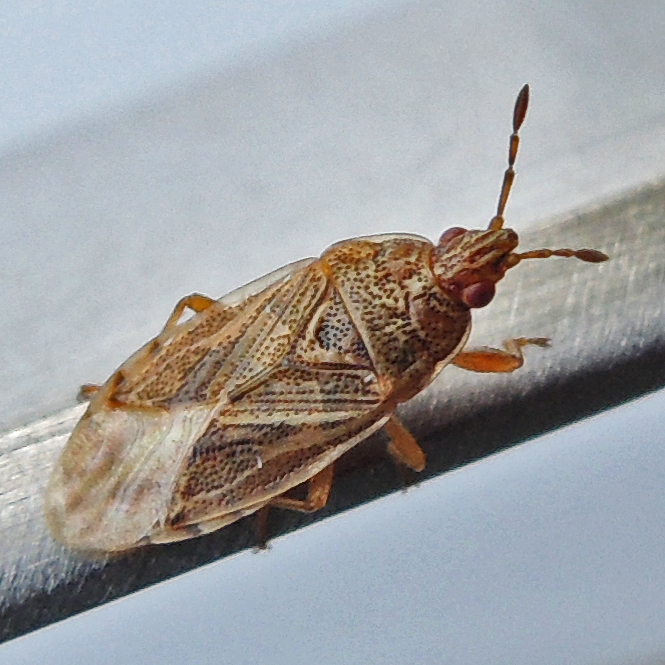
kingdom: Animalia
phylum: Arthropoda
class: Insecta
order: Hemiptera
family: Artheneidae
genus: Chilacis
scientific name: Chilacis typhae
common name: Cattail bug
